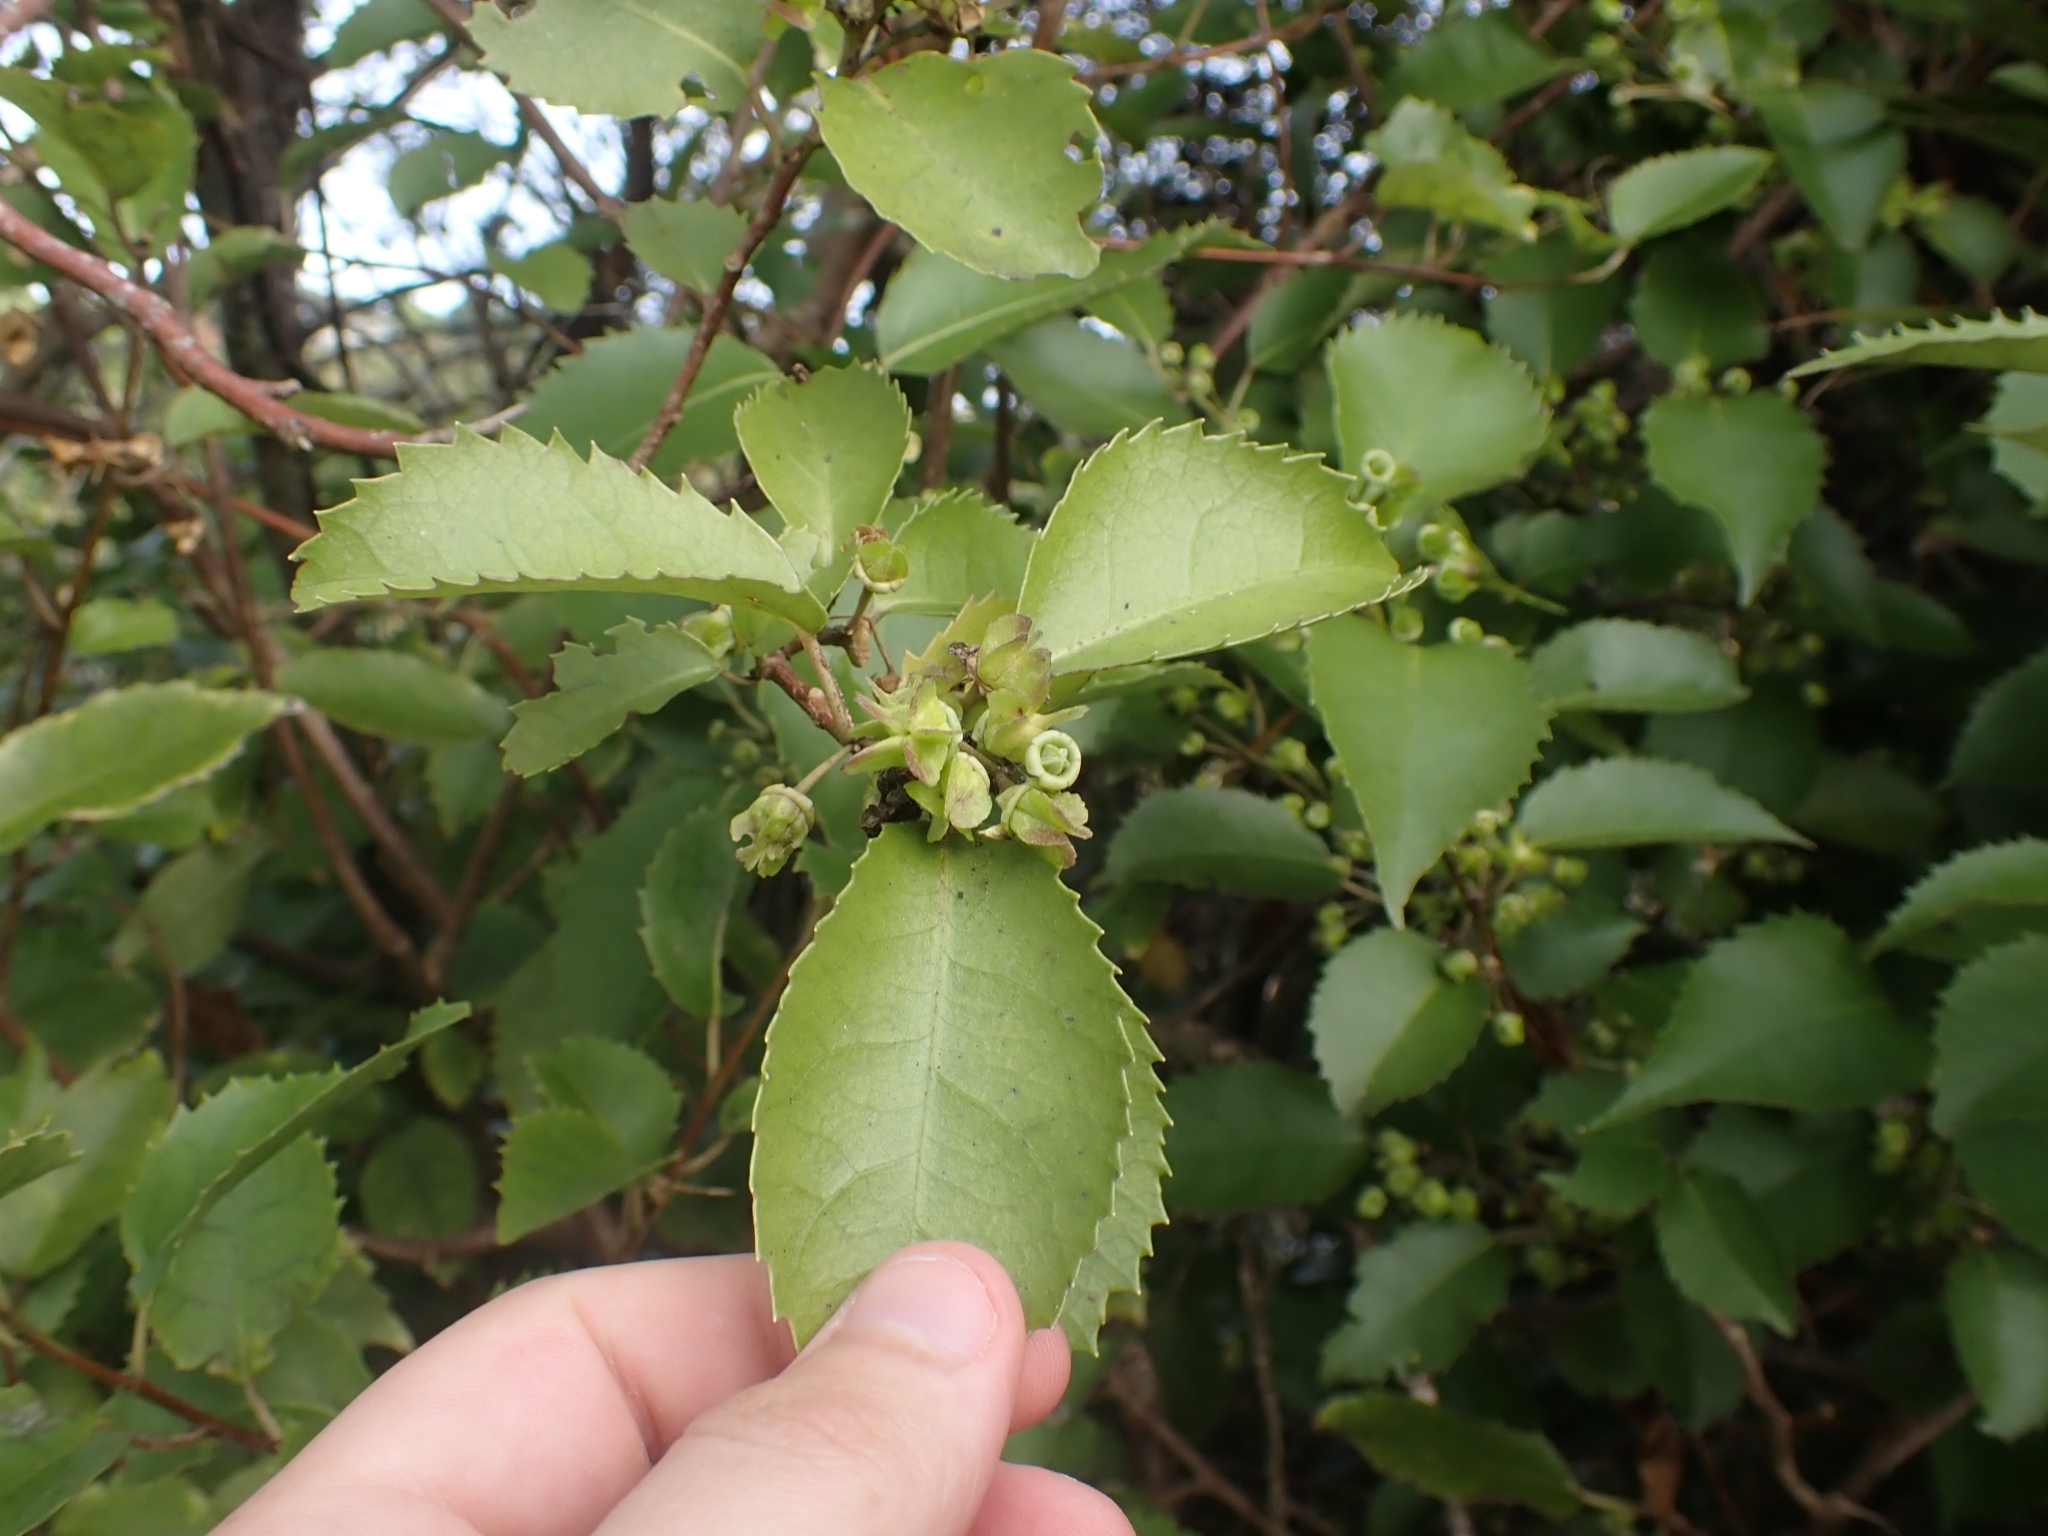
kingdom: Plantae
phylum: Tracheophyta
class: Magnoliopsida
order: Malvales
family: Malvaceae
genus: Hoheria
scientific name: Hoheria populnea
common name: Lacebark
